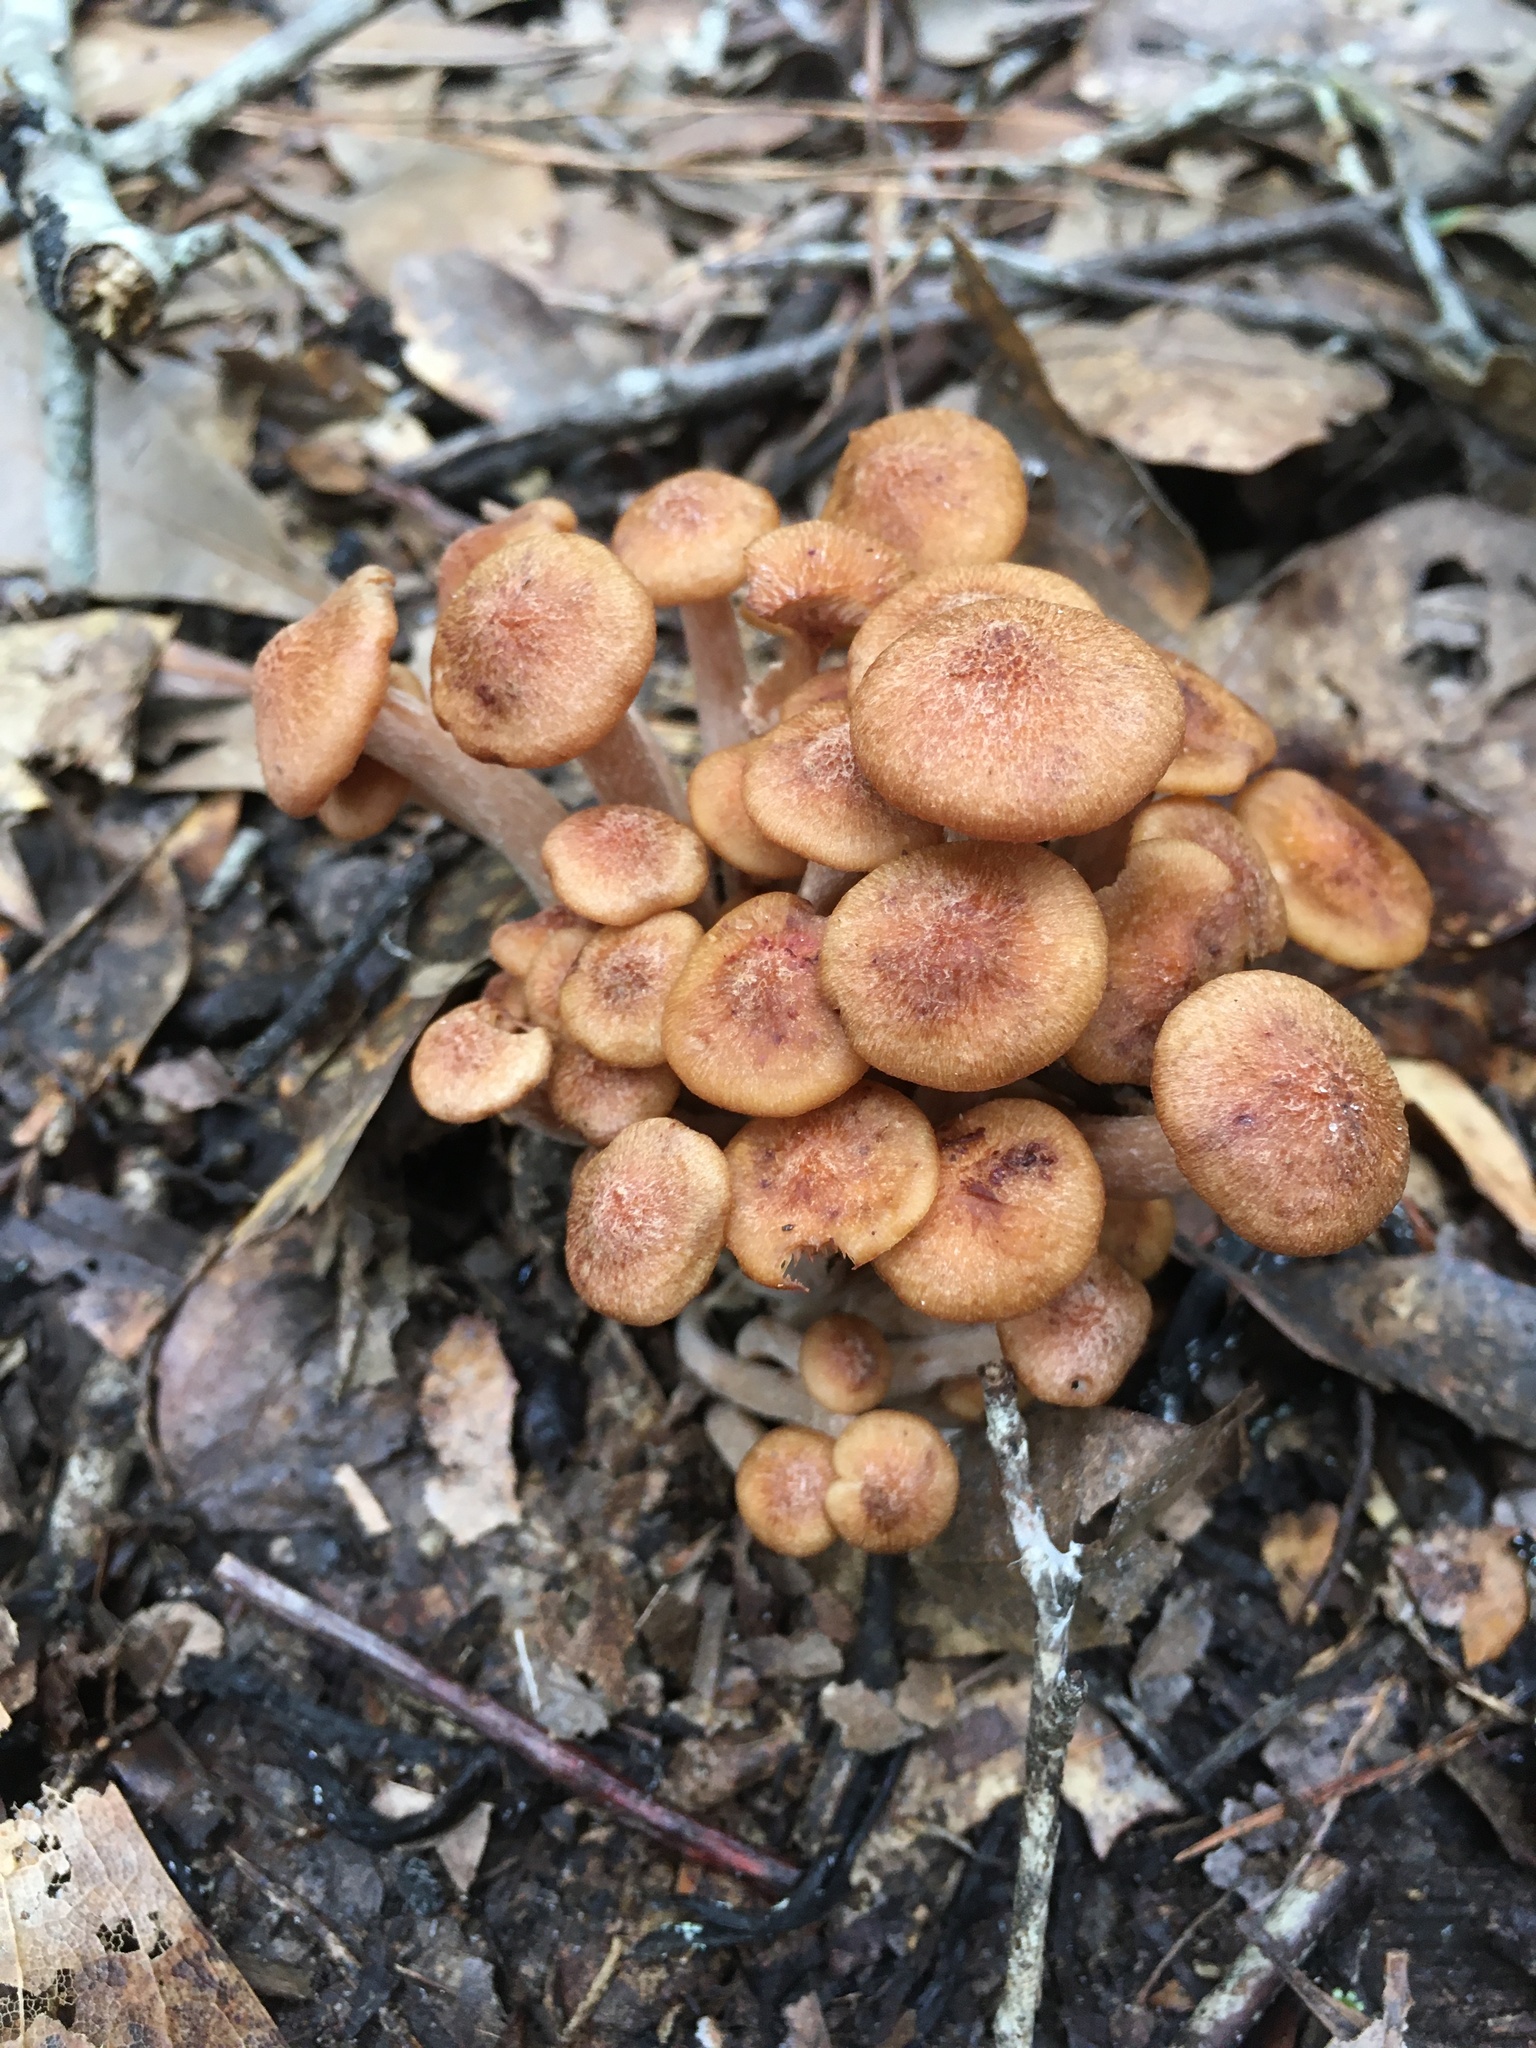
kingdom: Fungi
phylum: Basidiomycota
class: Agaricomycetes
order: Agaricales
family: Physalacriaceae
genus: Desarmillaria
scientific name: Desarmillaria caespitosa
